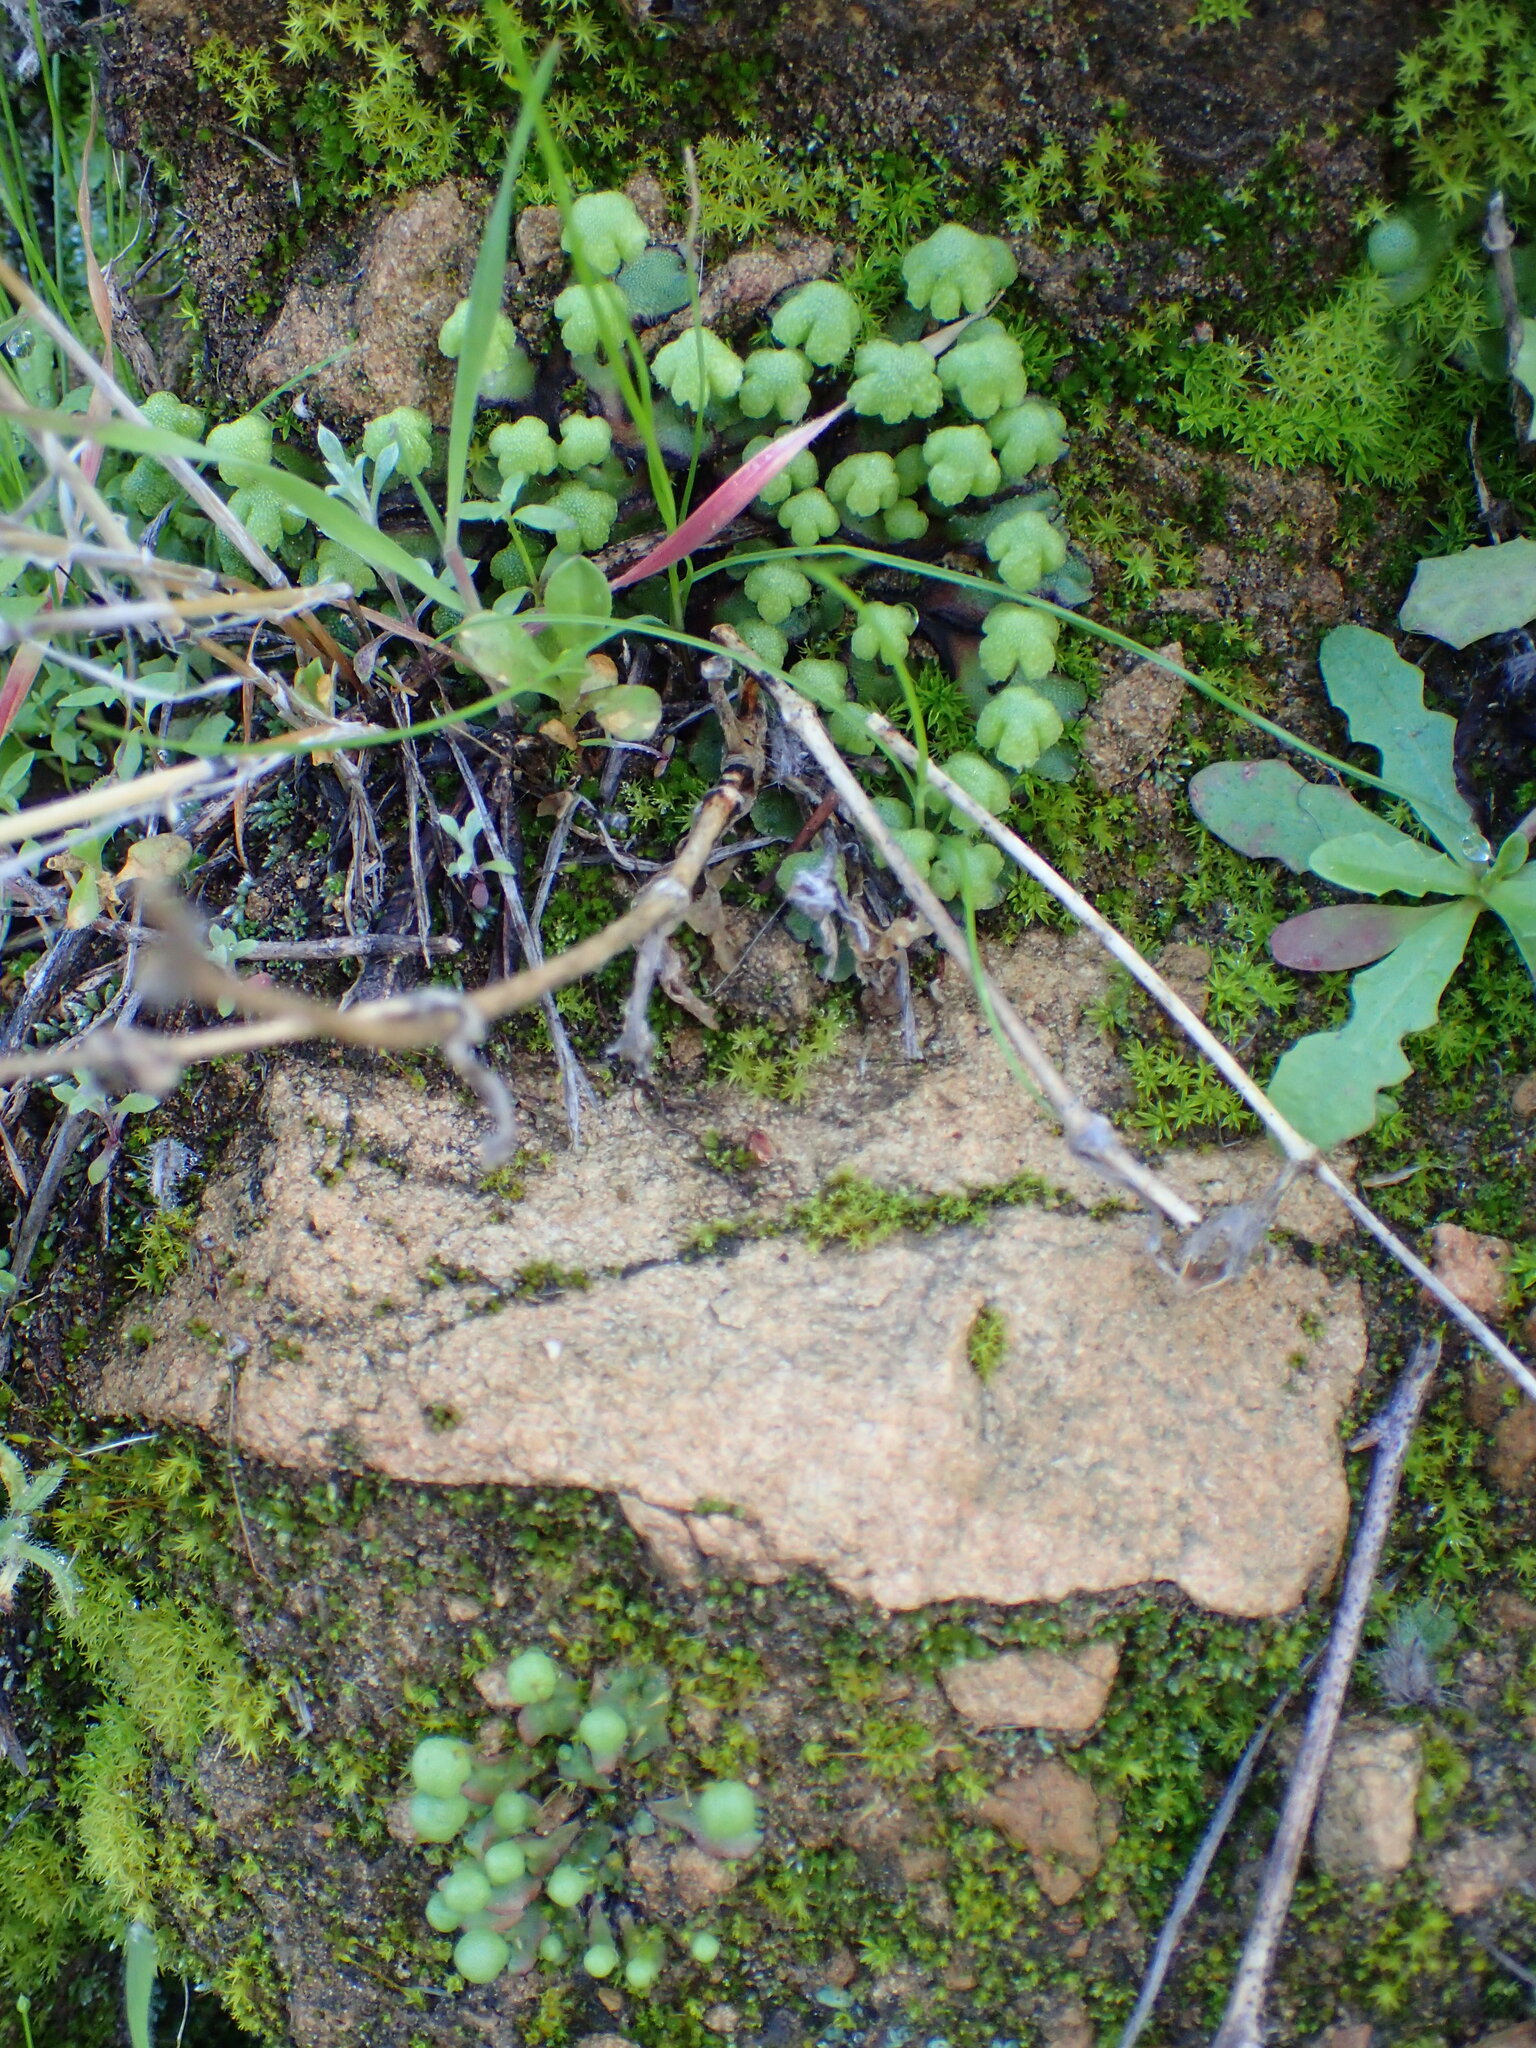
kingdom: Plantae
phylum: Marchantiophyta
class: Marchantiopsida
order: Marchantiales
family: Aytoniaceae
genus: Asterella
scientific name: Asterella californica
